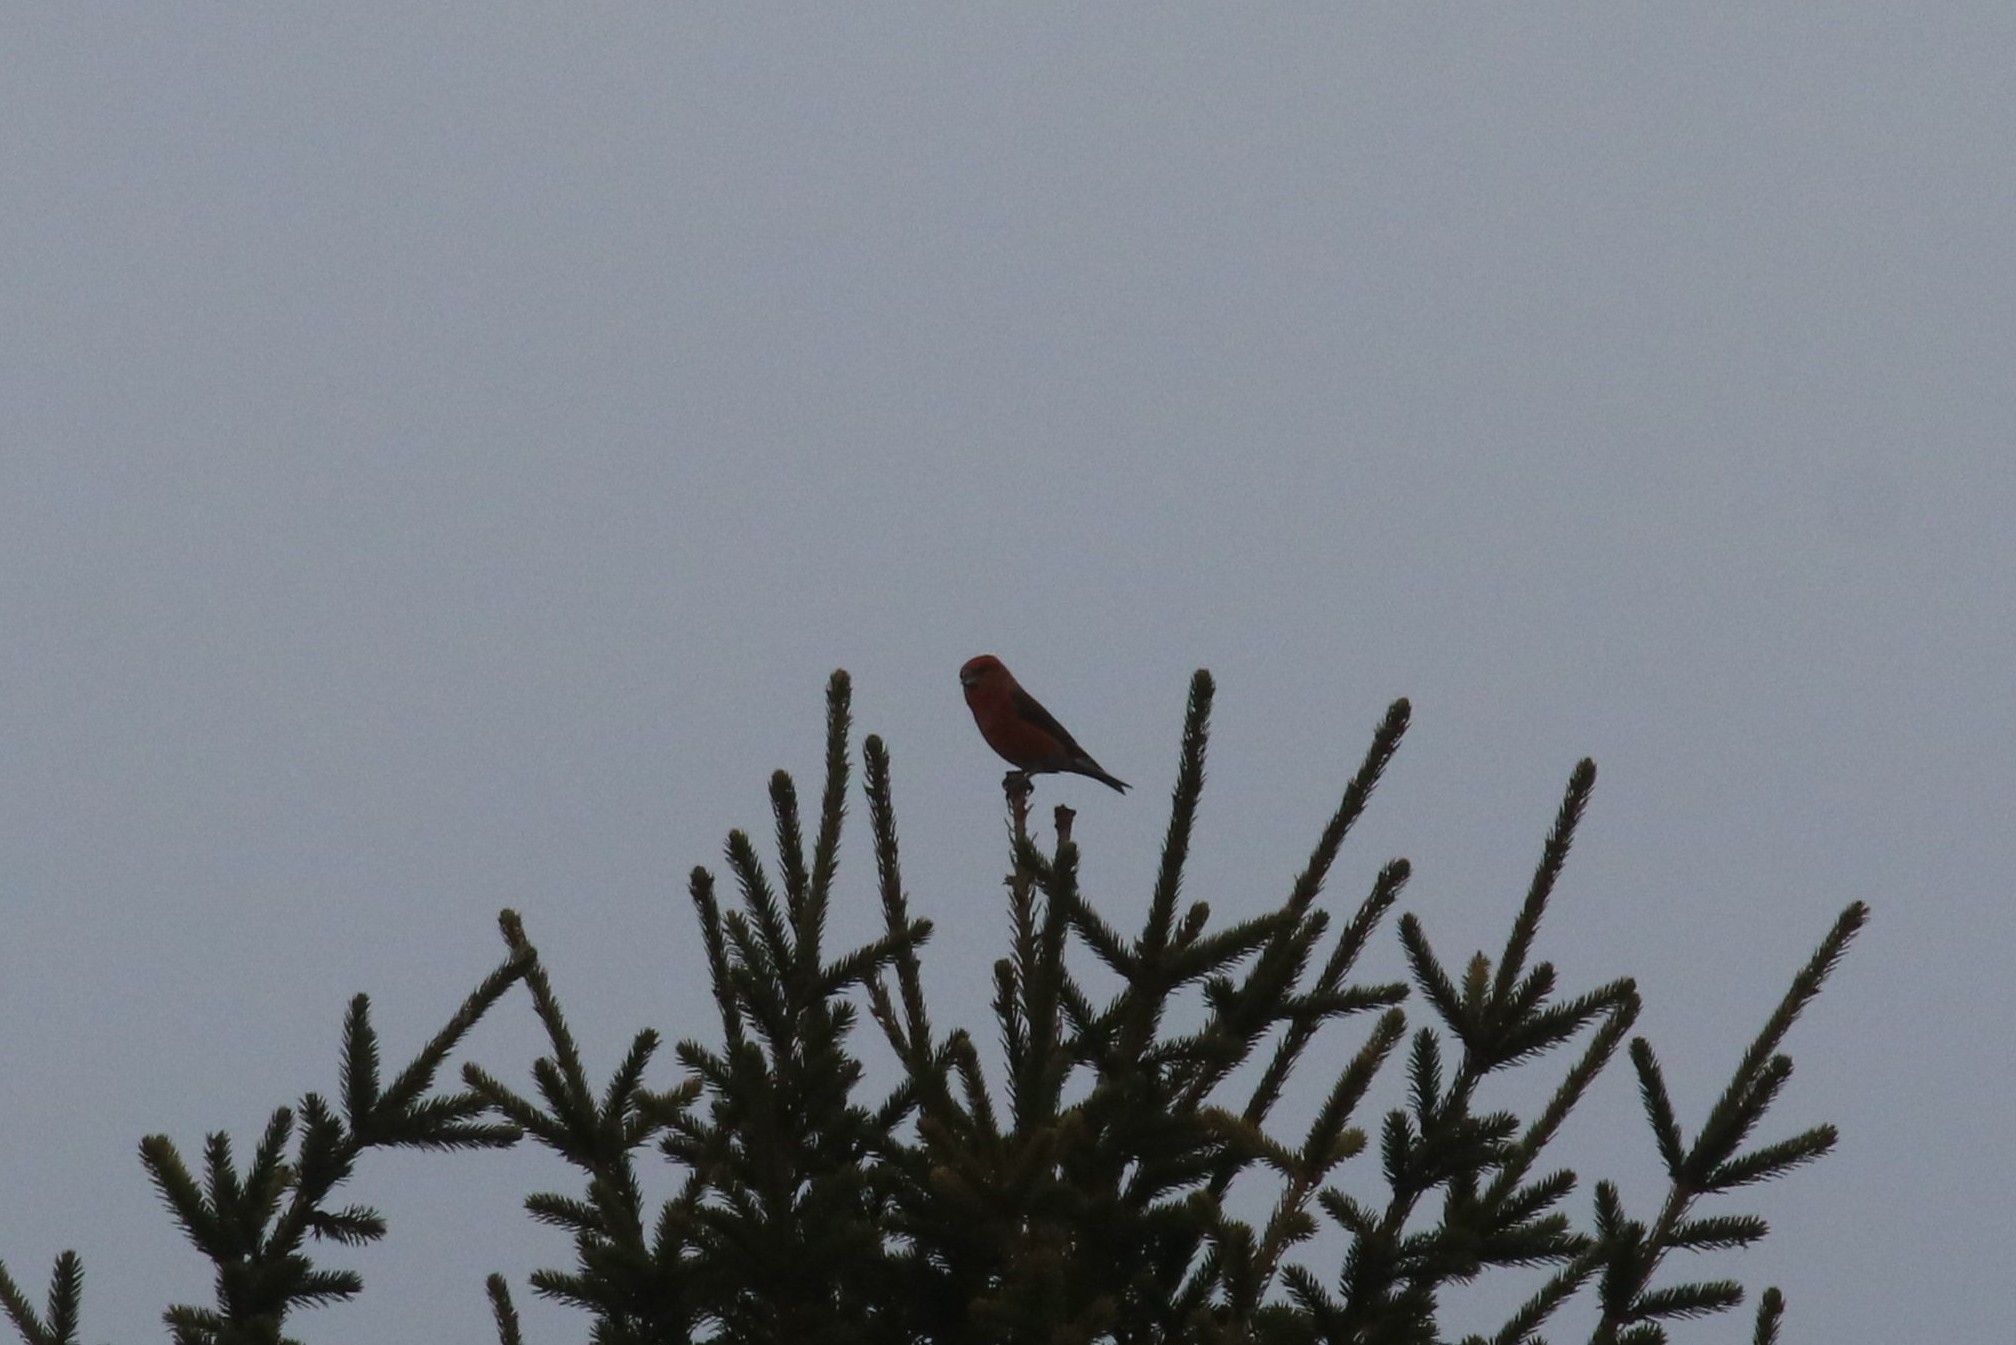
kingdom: Animalia
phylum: Chordata
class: Aves
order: Passeriformes
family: Fringillidae
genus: Loxia
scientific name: Loxia curvirostra
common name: Red crossbill
